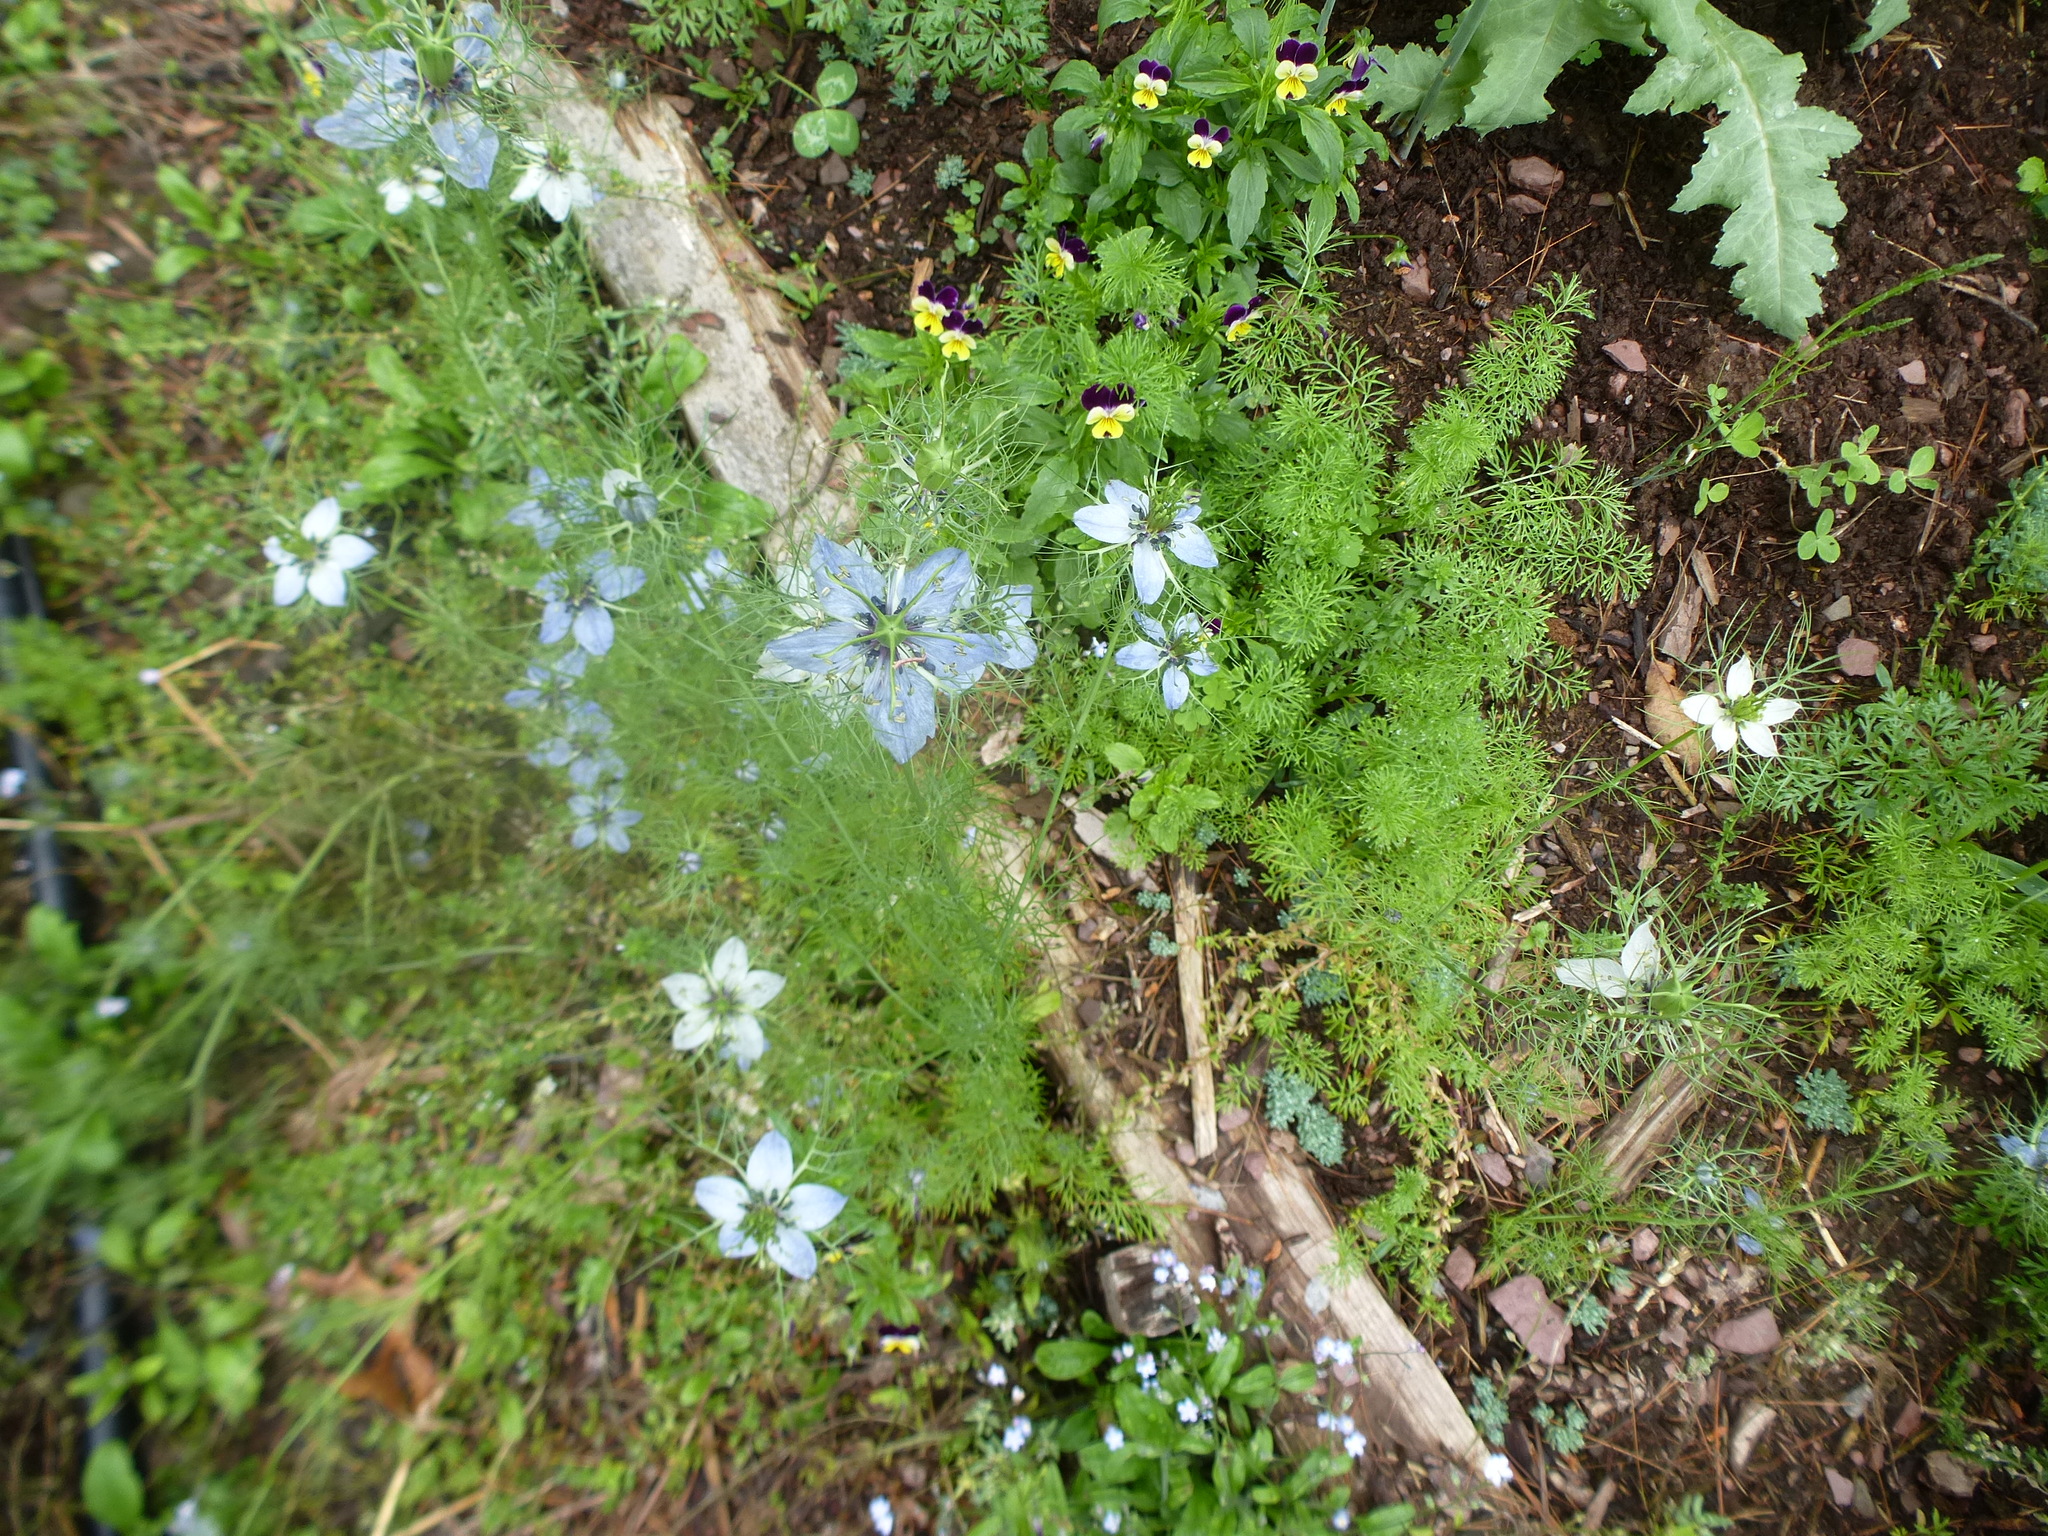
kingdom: Plantae
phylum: Tracheophyta
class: Magnoliopsida
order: Ranunculales
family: Ranunculaceae
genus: Nigella
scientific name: Nigella damascena
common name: Love-in-a-mist
